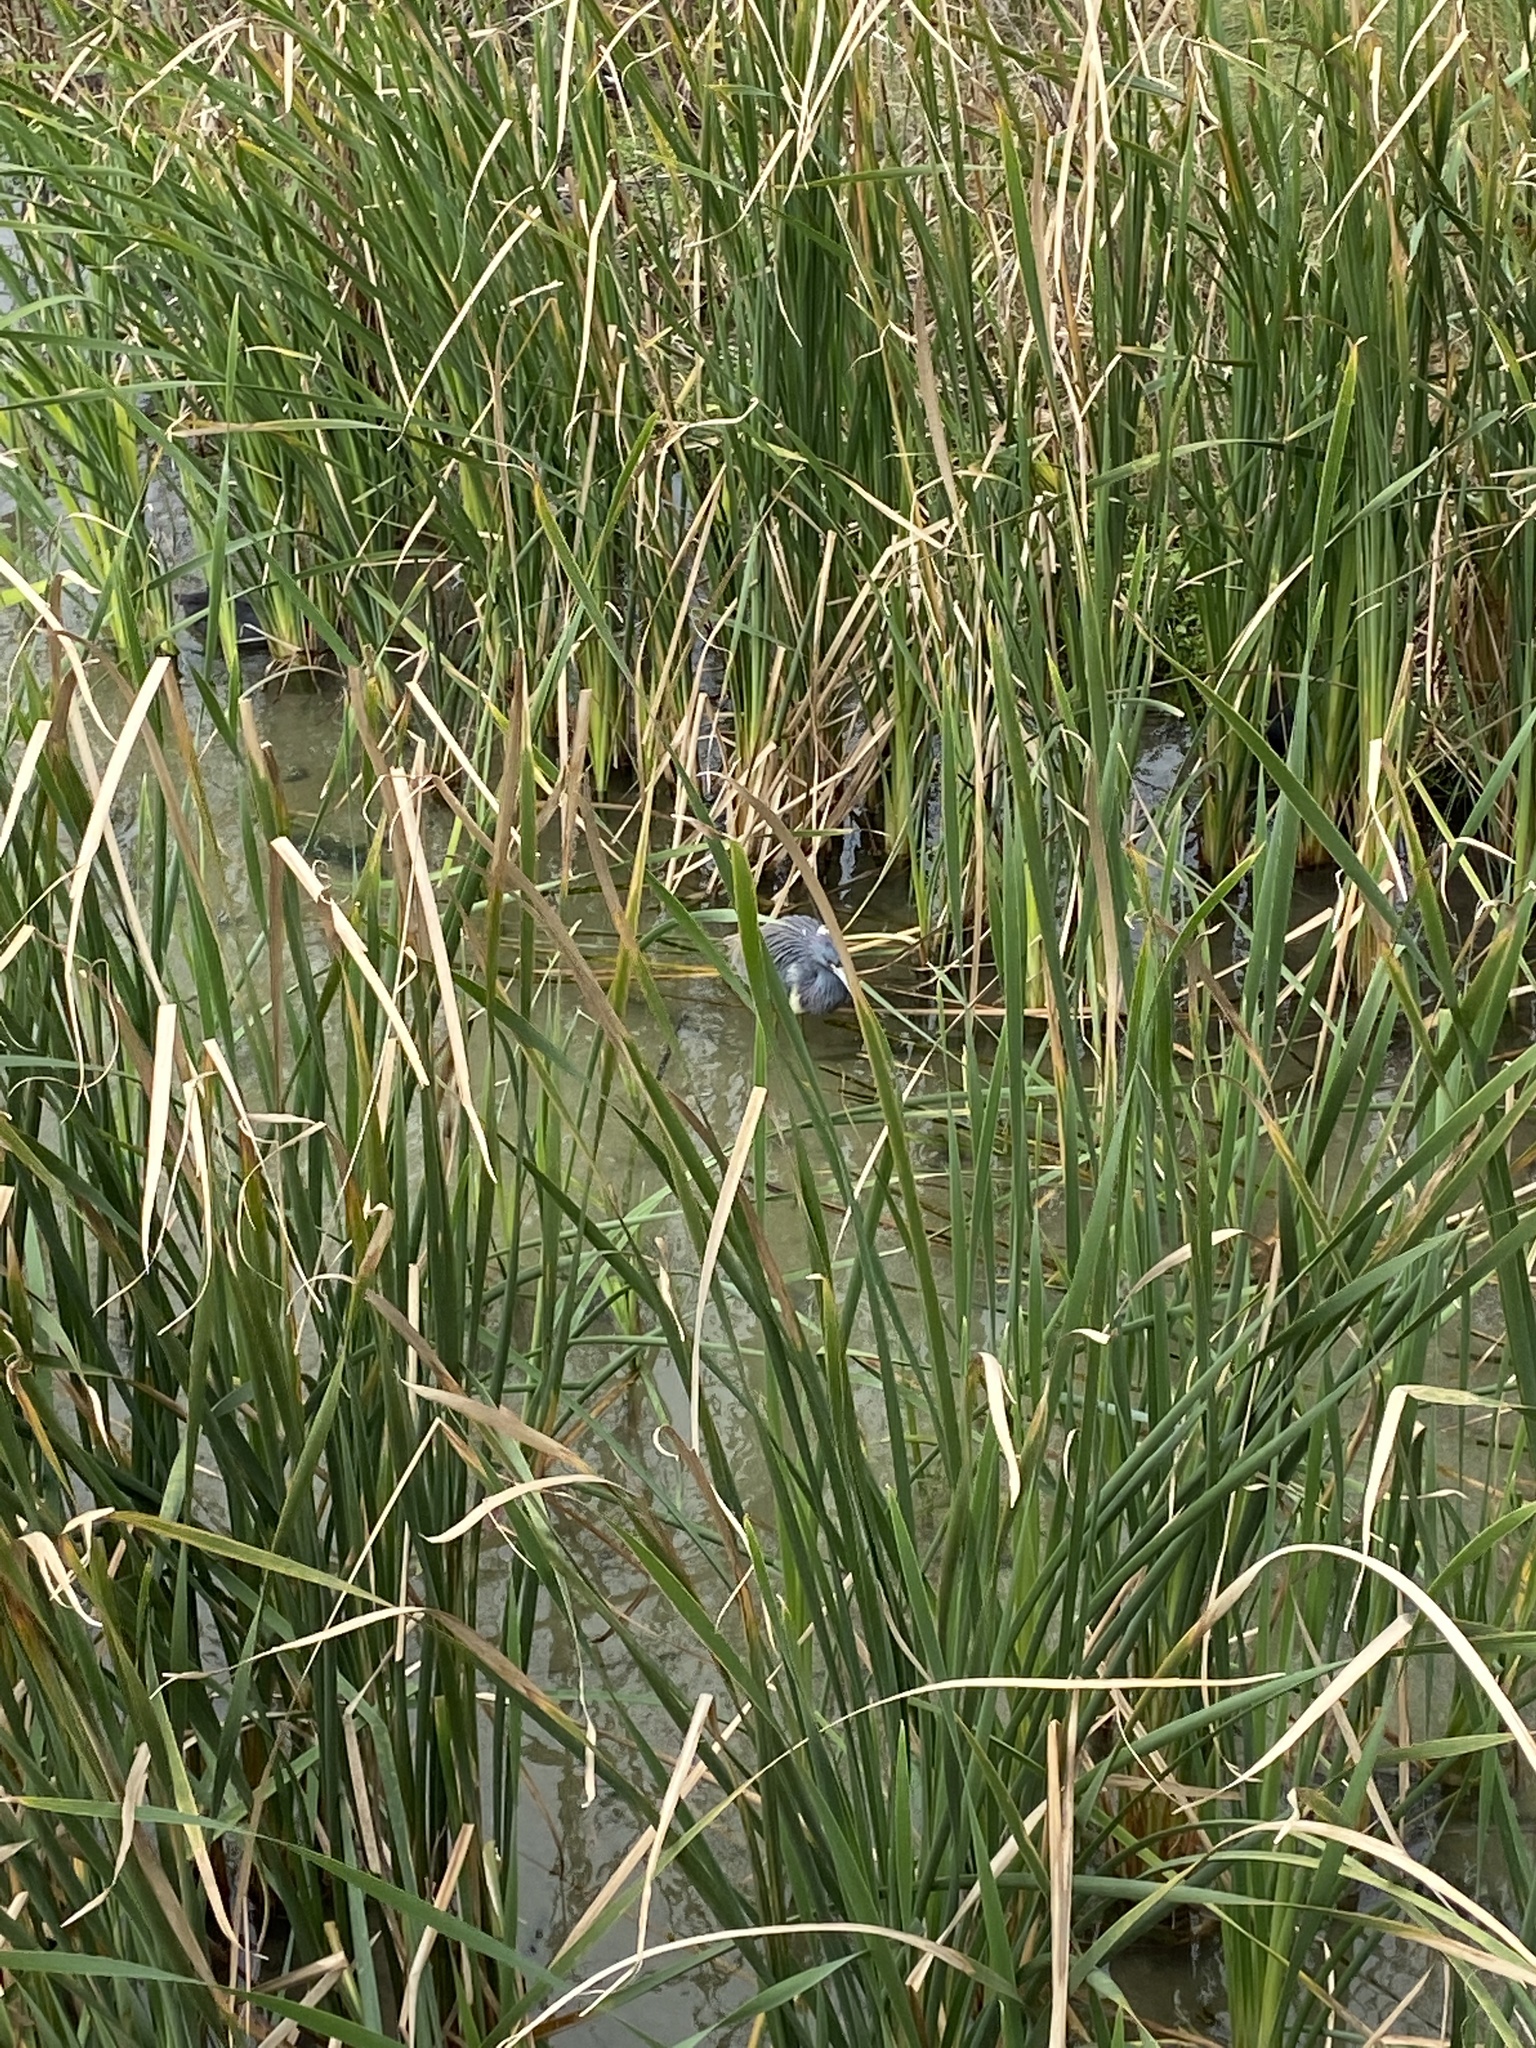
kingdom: Animalia
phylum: Chordata
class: Aves
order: Pelecaniformes
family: Ardeidae
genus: Egretta
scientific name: Egretta tricolor
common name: Tricolored heron
